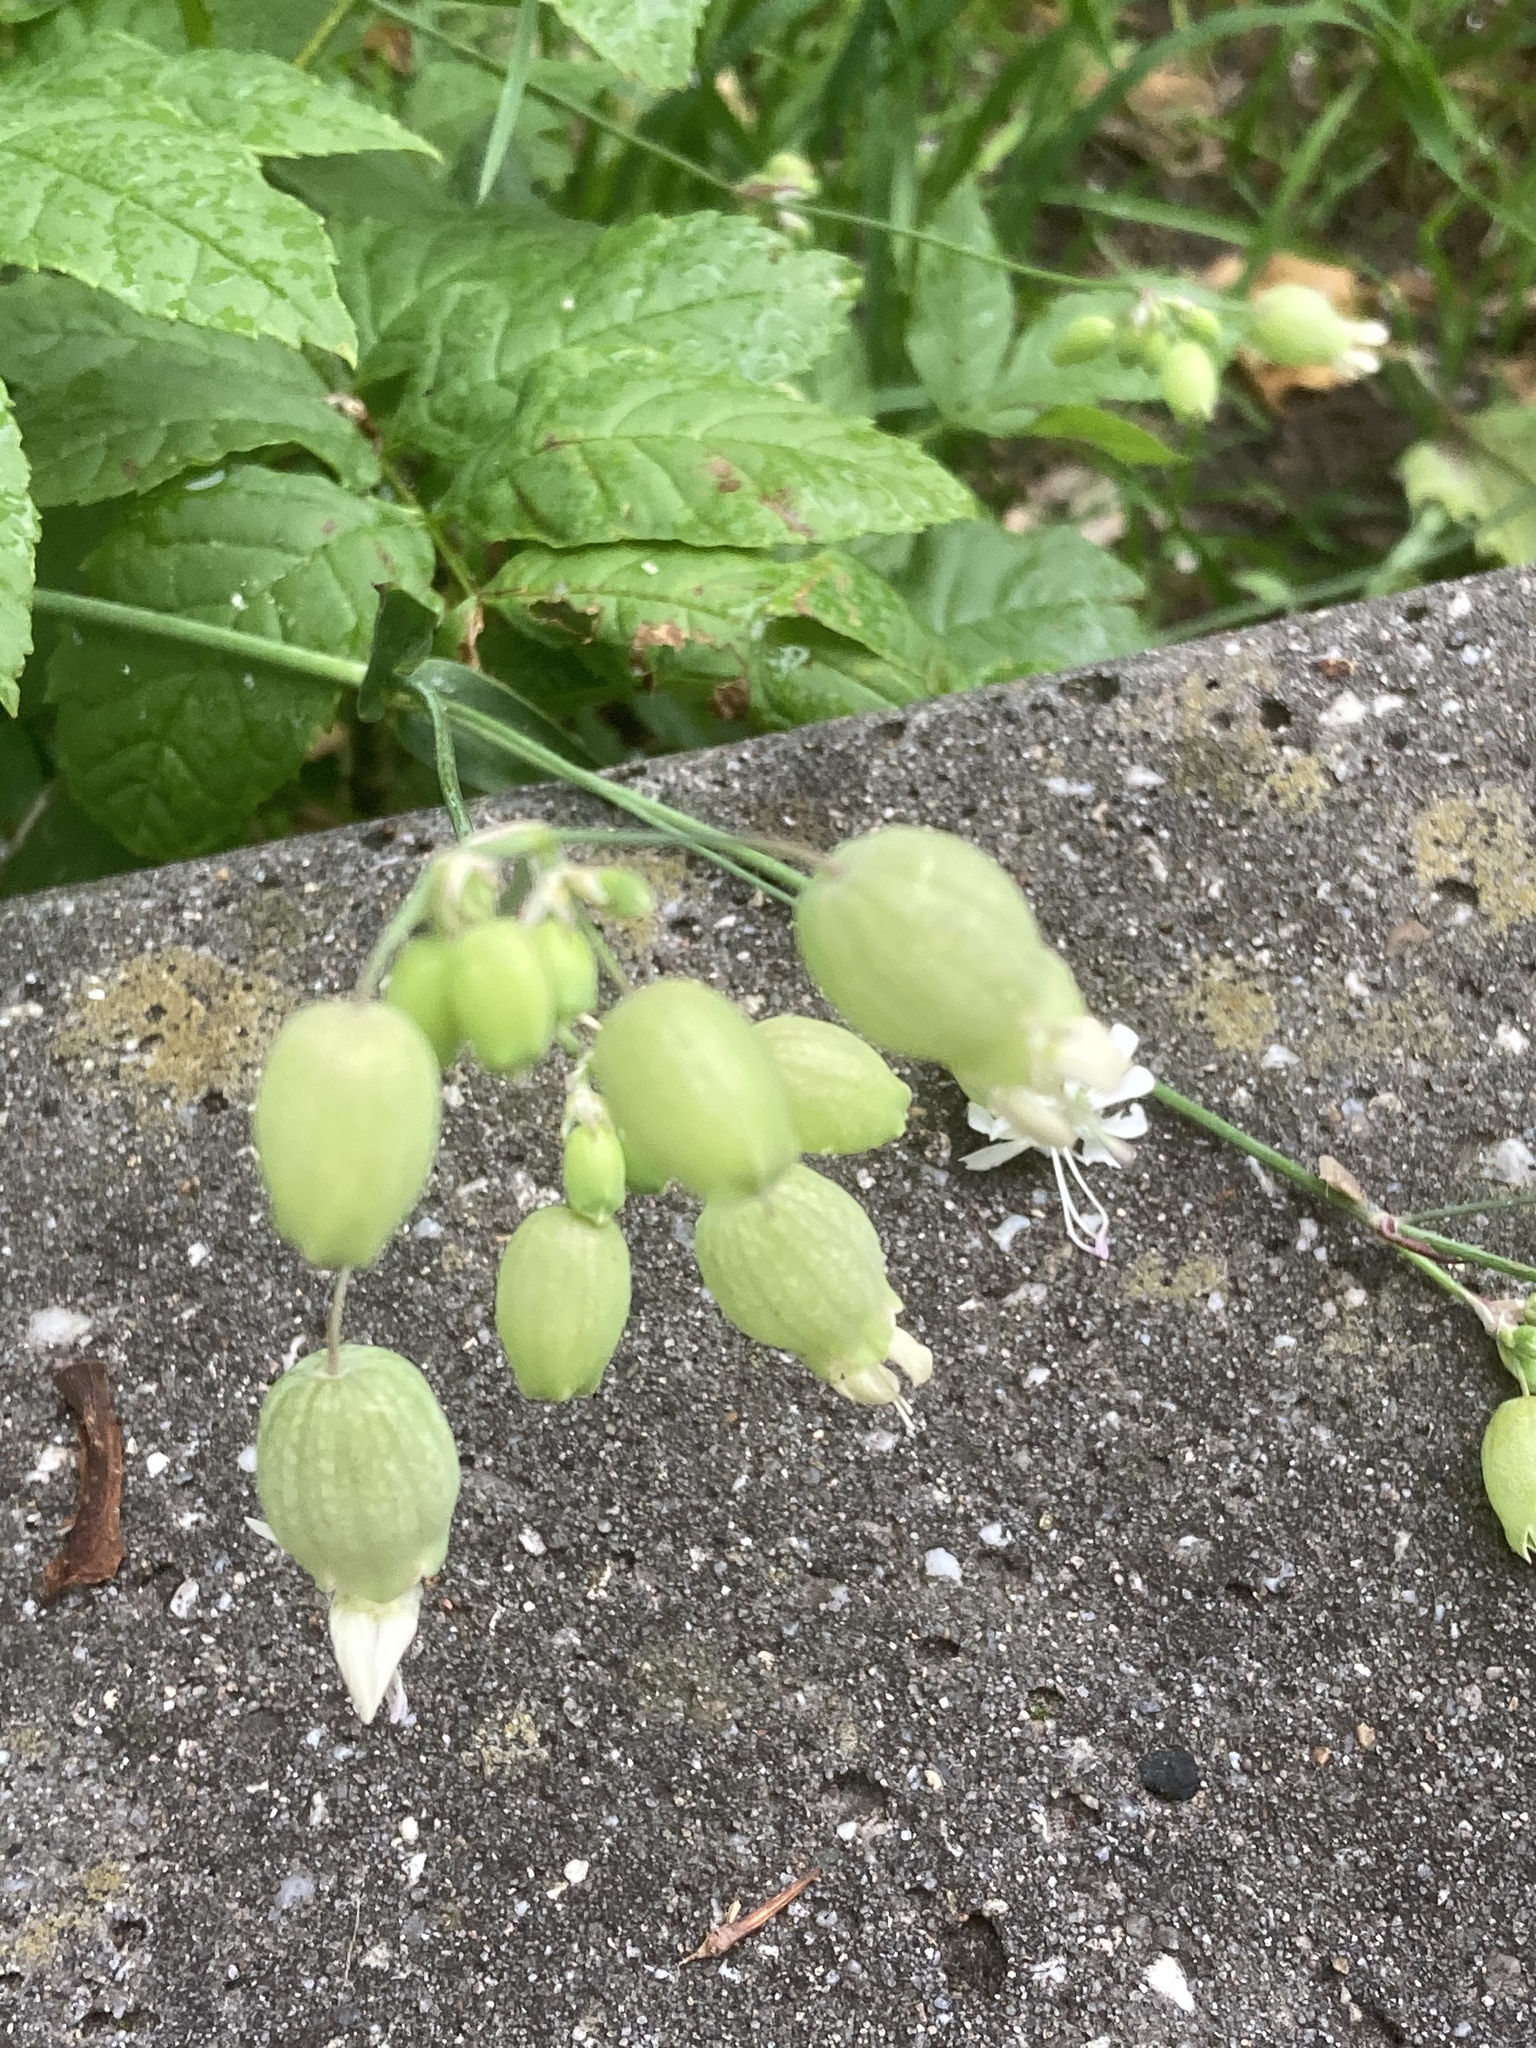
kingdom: Plantae
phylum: Tracheophyta
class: Magnoliopsida
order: Caryophyllales
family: Caryophyllaceae
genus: Silene
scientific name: Silene vulgaris
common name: Bladder campion
